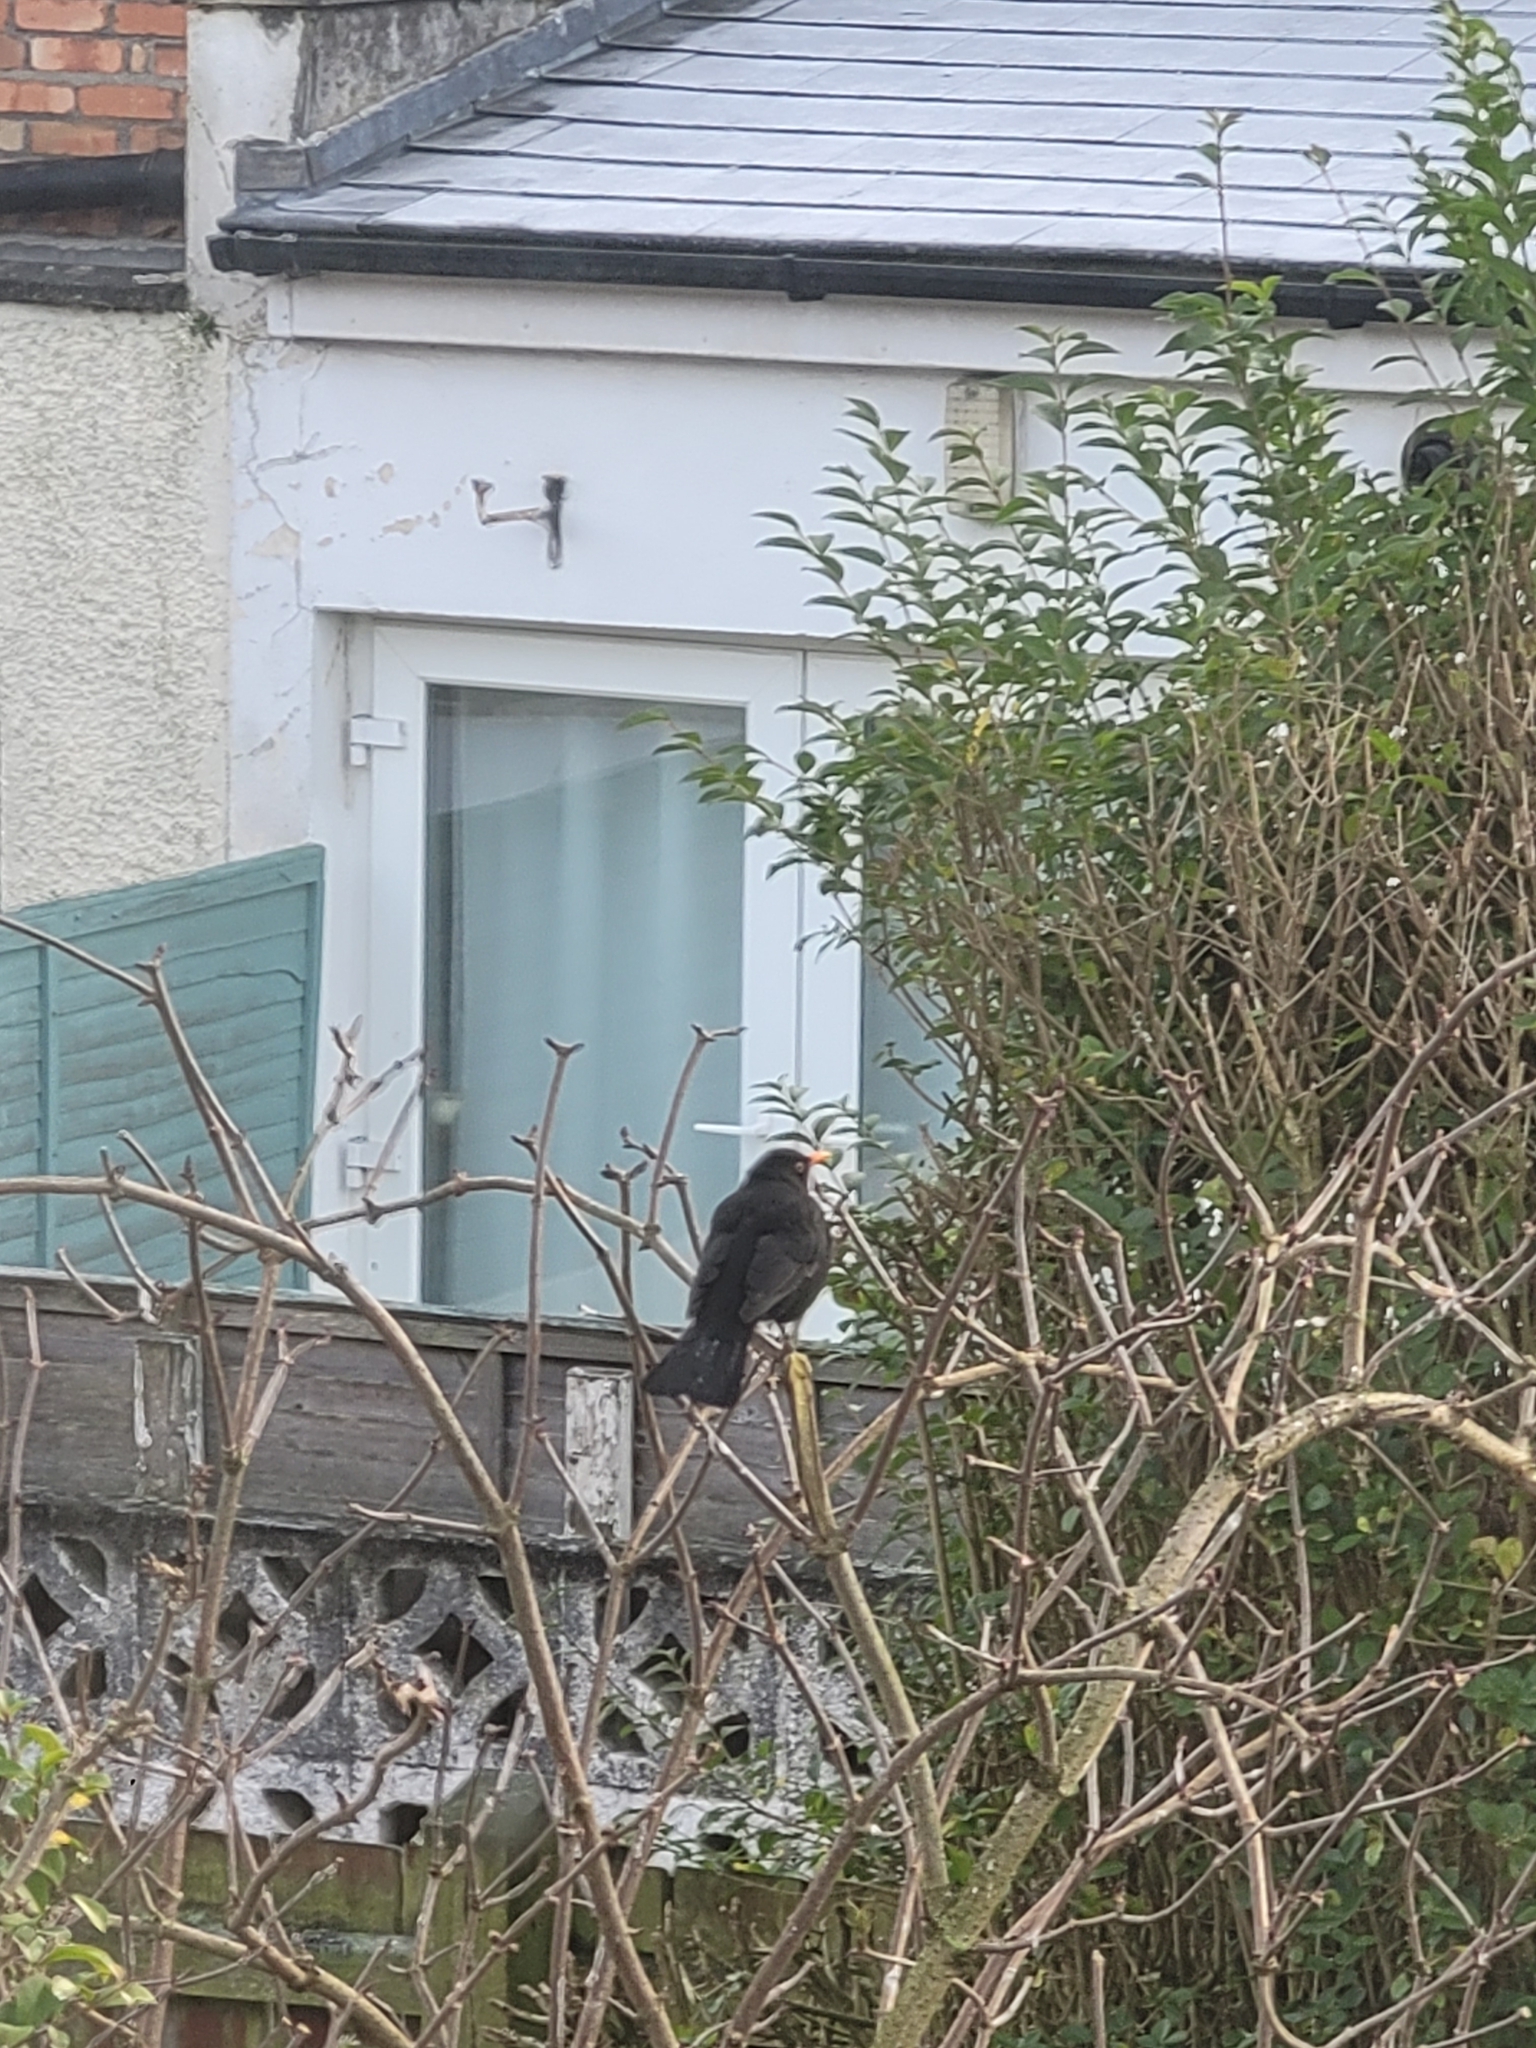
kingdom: Animalia
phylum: Chordata
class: Aves
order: Passeriformes
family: Turdidae
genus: Turdus
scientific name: Turdus merula
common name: Common blackbird
